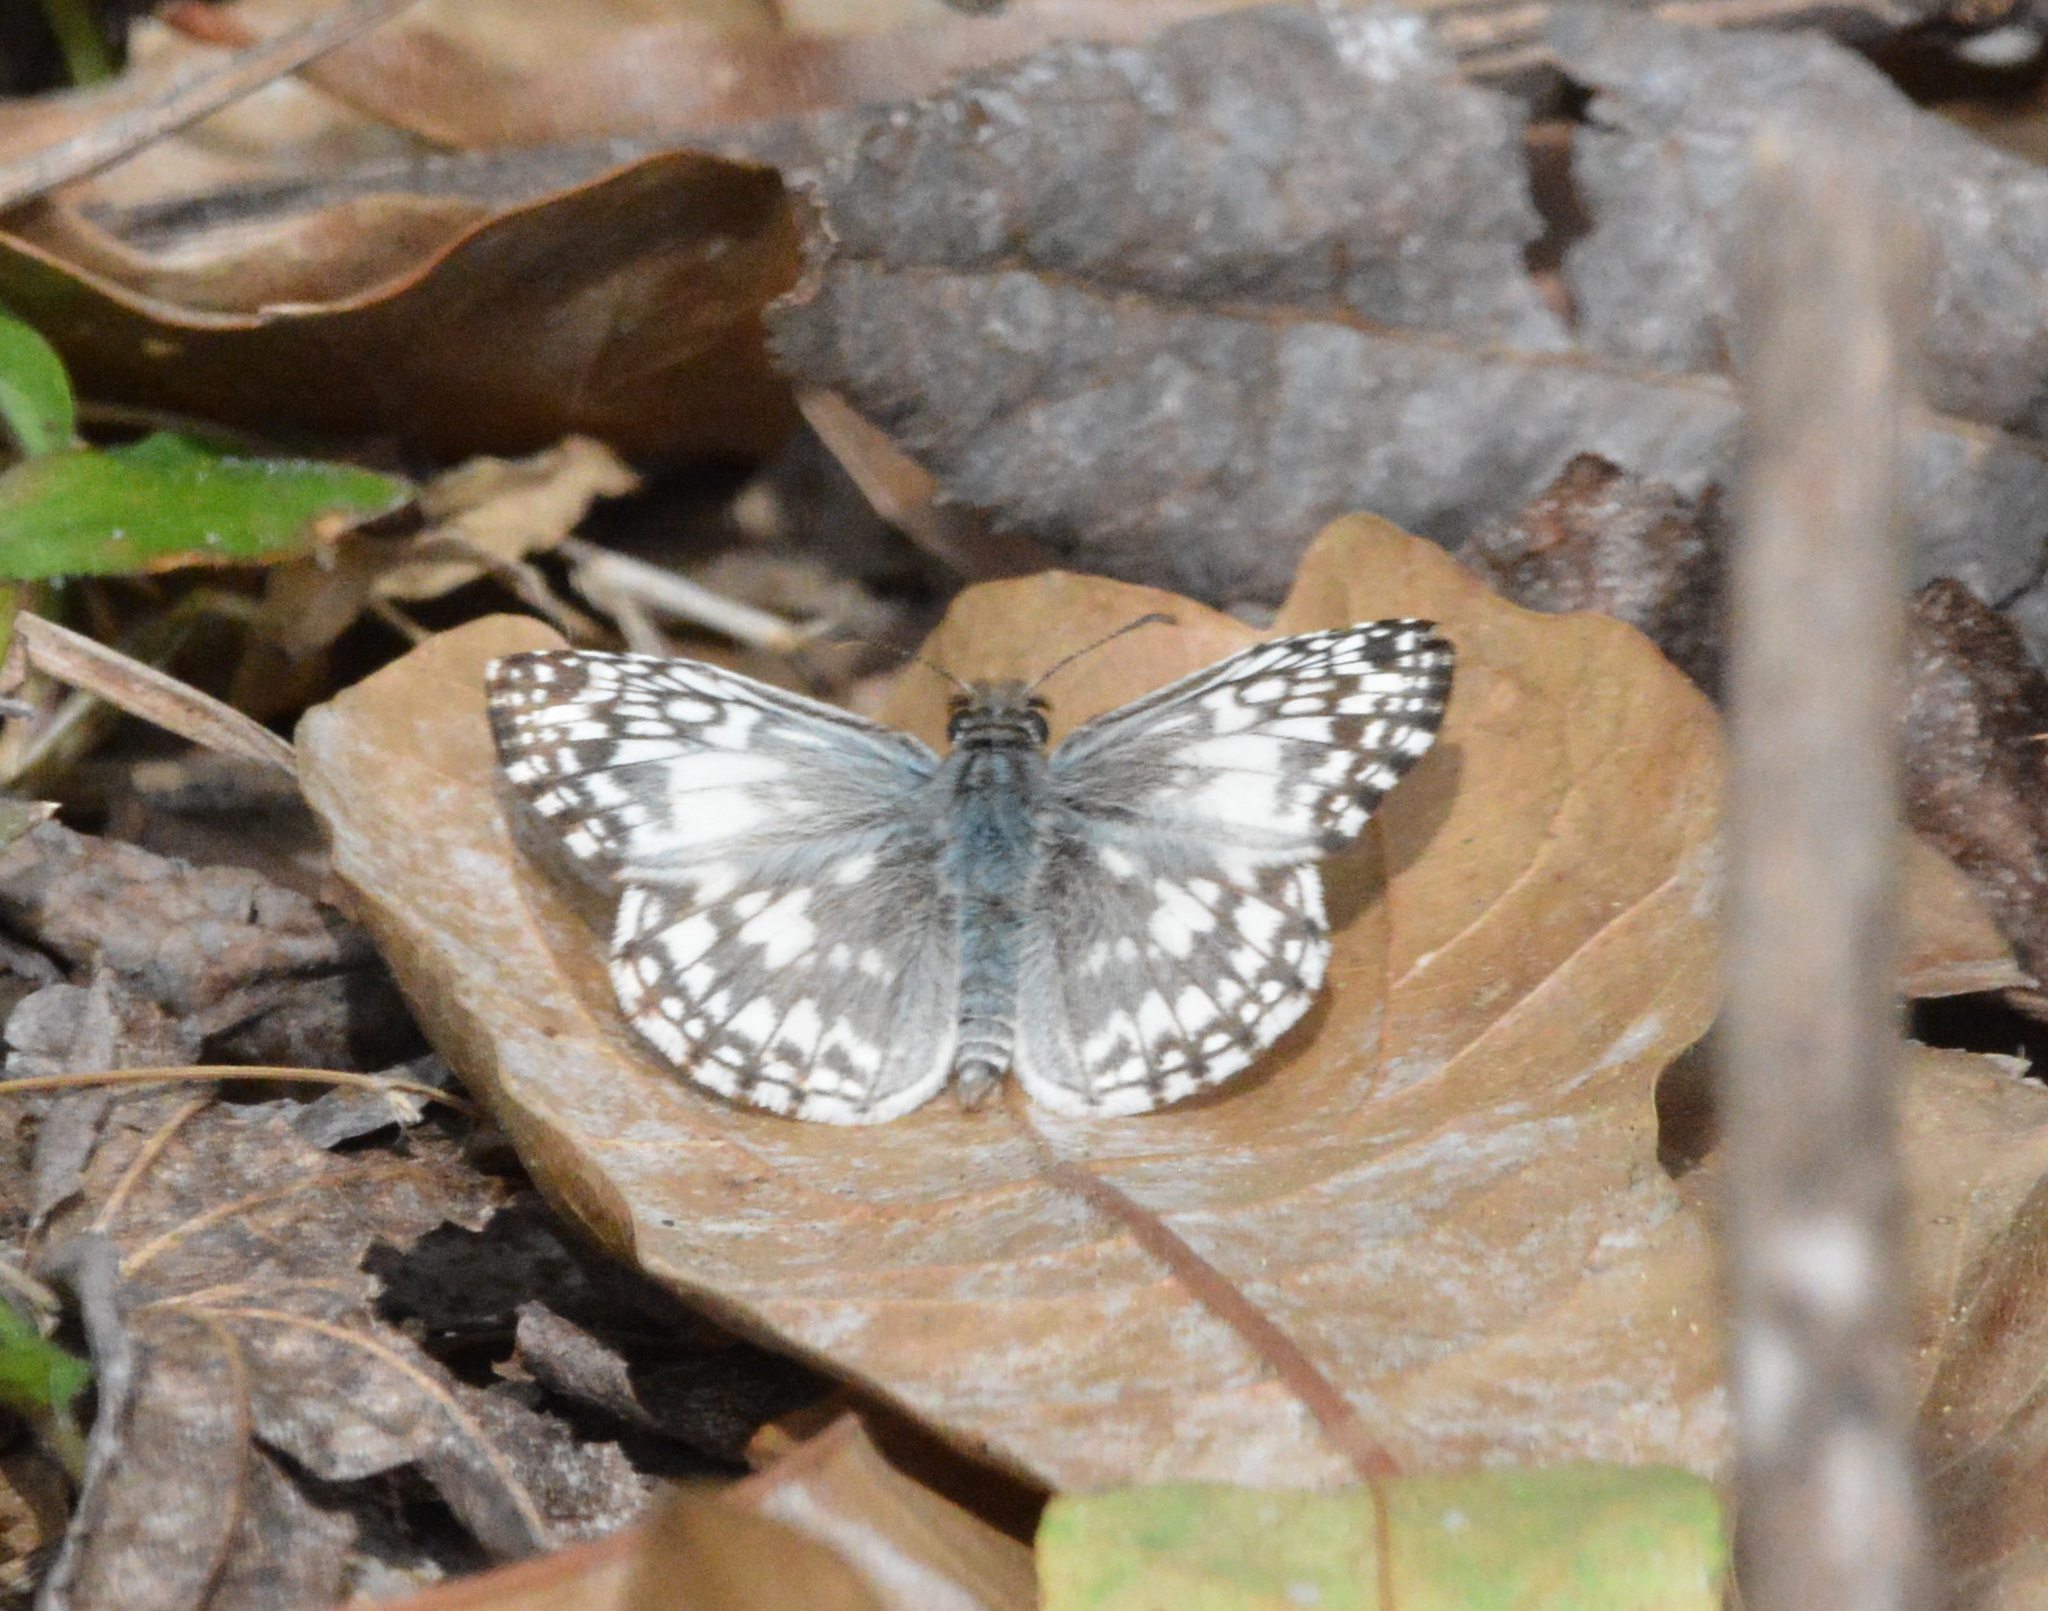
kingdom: Animalia
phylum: Arthropoda
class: Insecta
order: Lepidoptera
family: Hesperiidae
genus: Pyrgus
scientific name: Pyrgus oileus
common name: Tropical checkered-skipper
